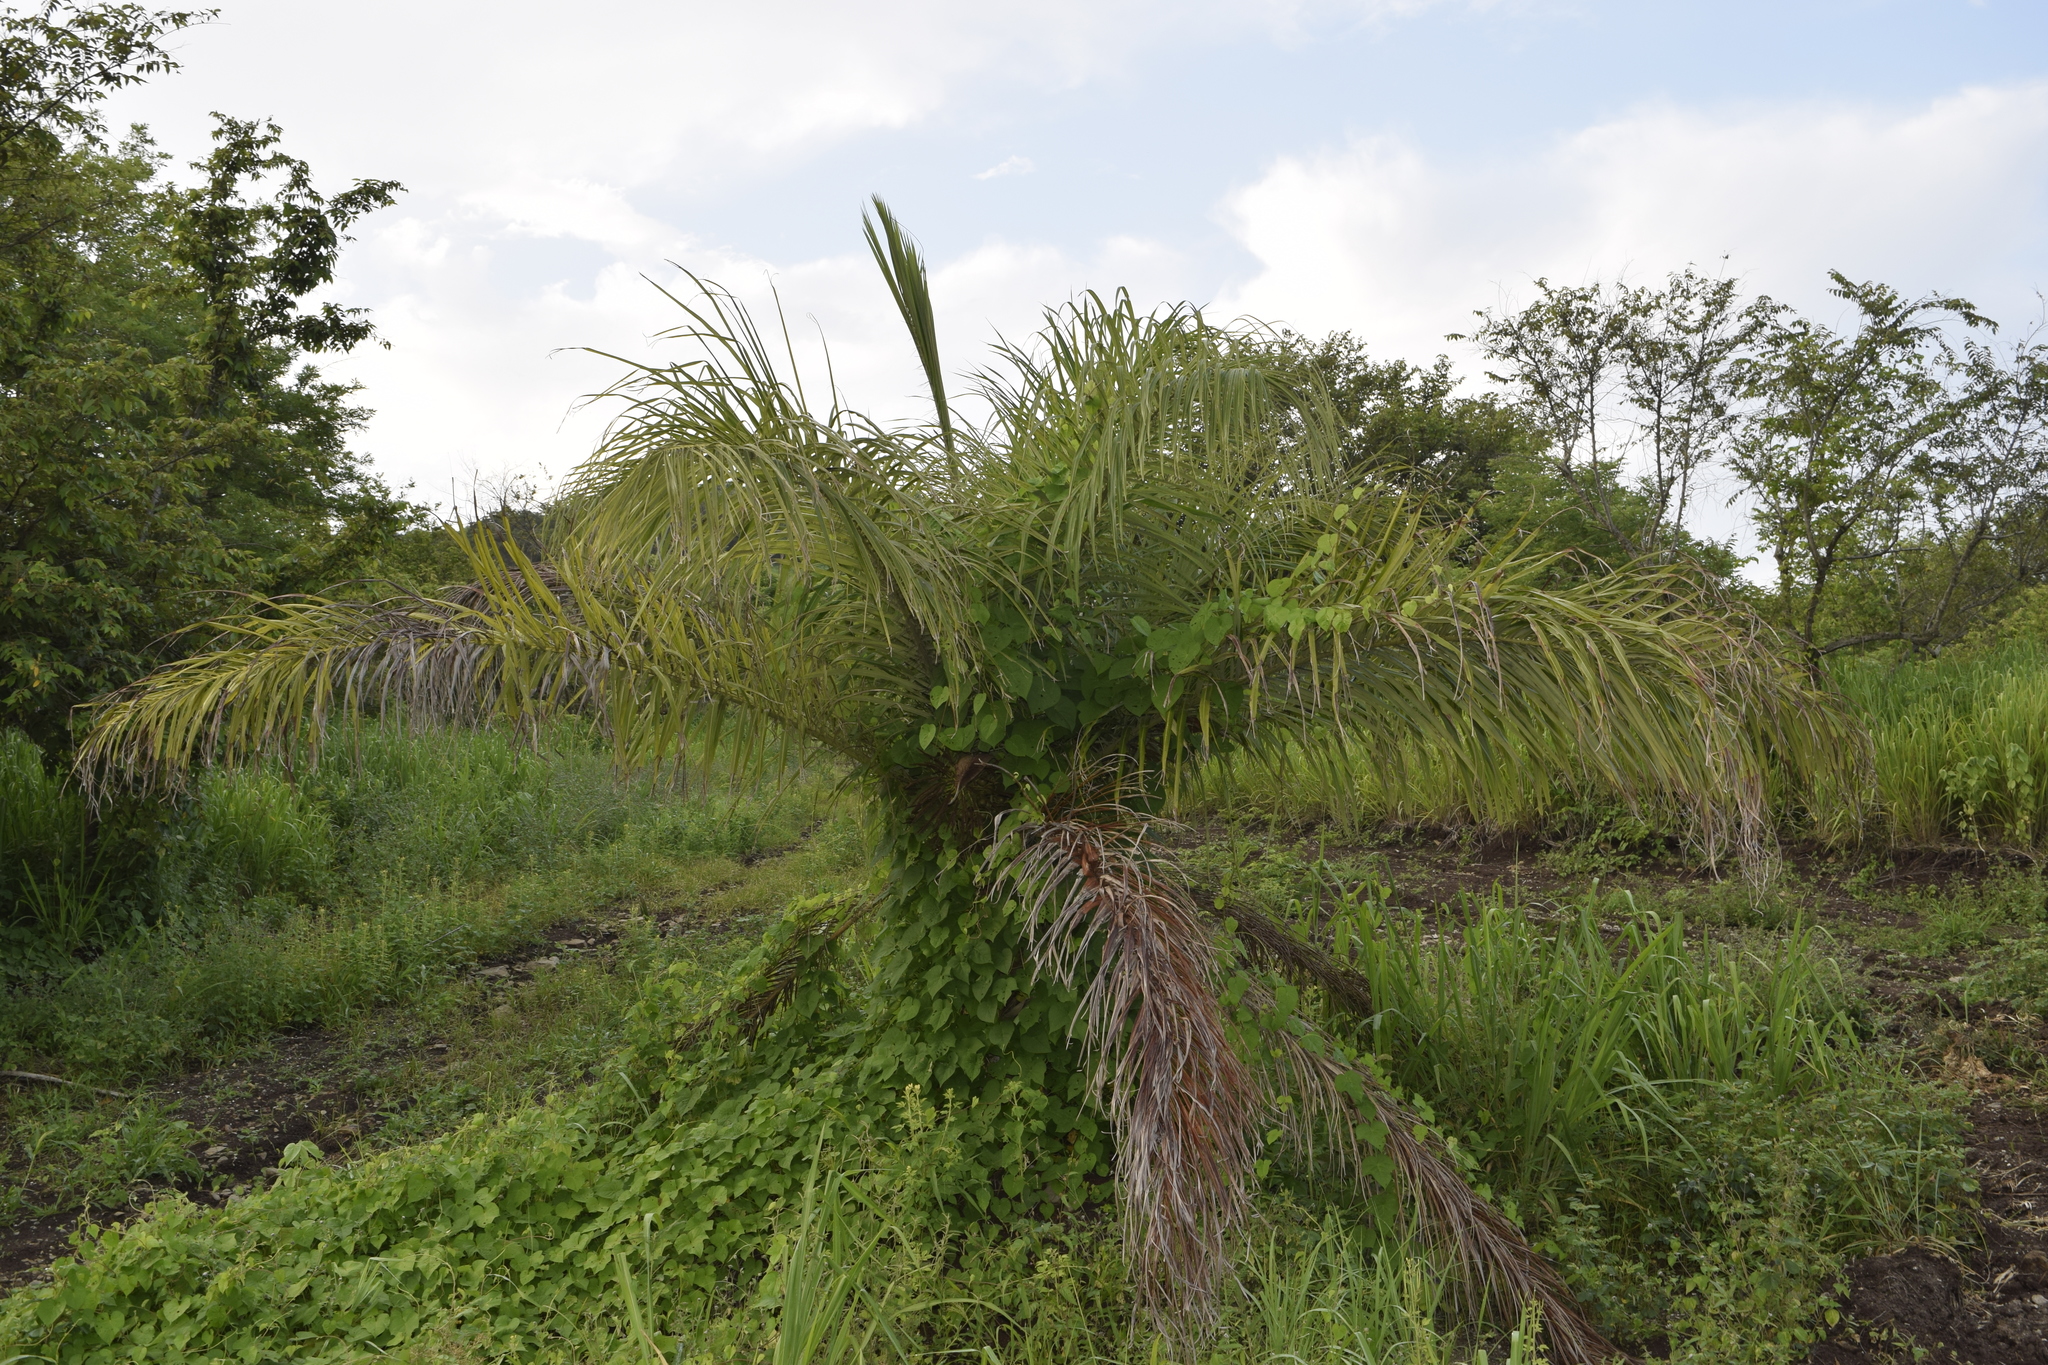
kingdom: Plantae
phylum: Tracheophyta
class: Liliopsida
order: Arecales
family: Arecaceae
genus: Acrocomia
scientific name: Acrocomia aculeata
